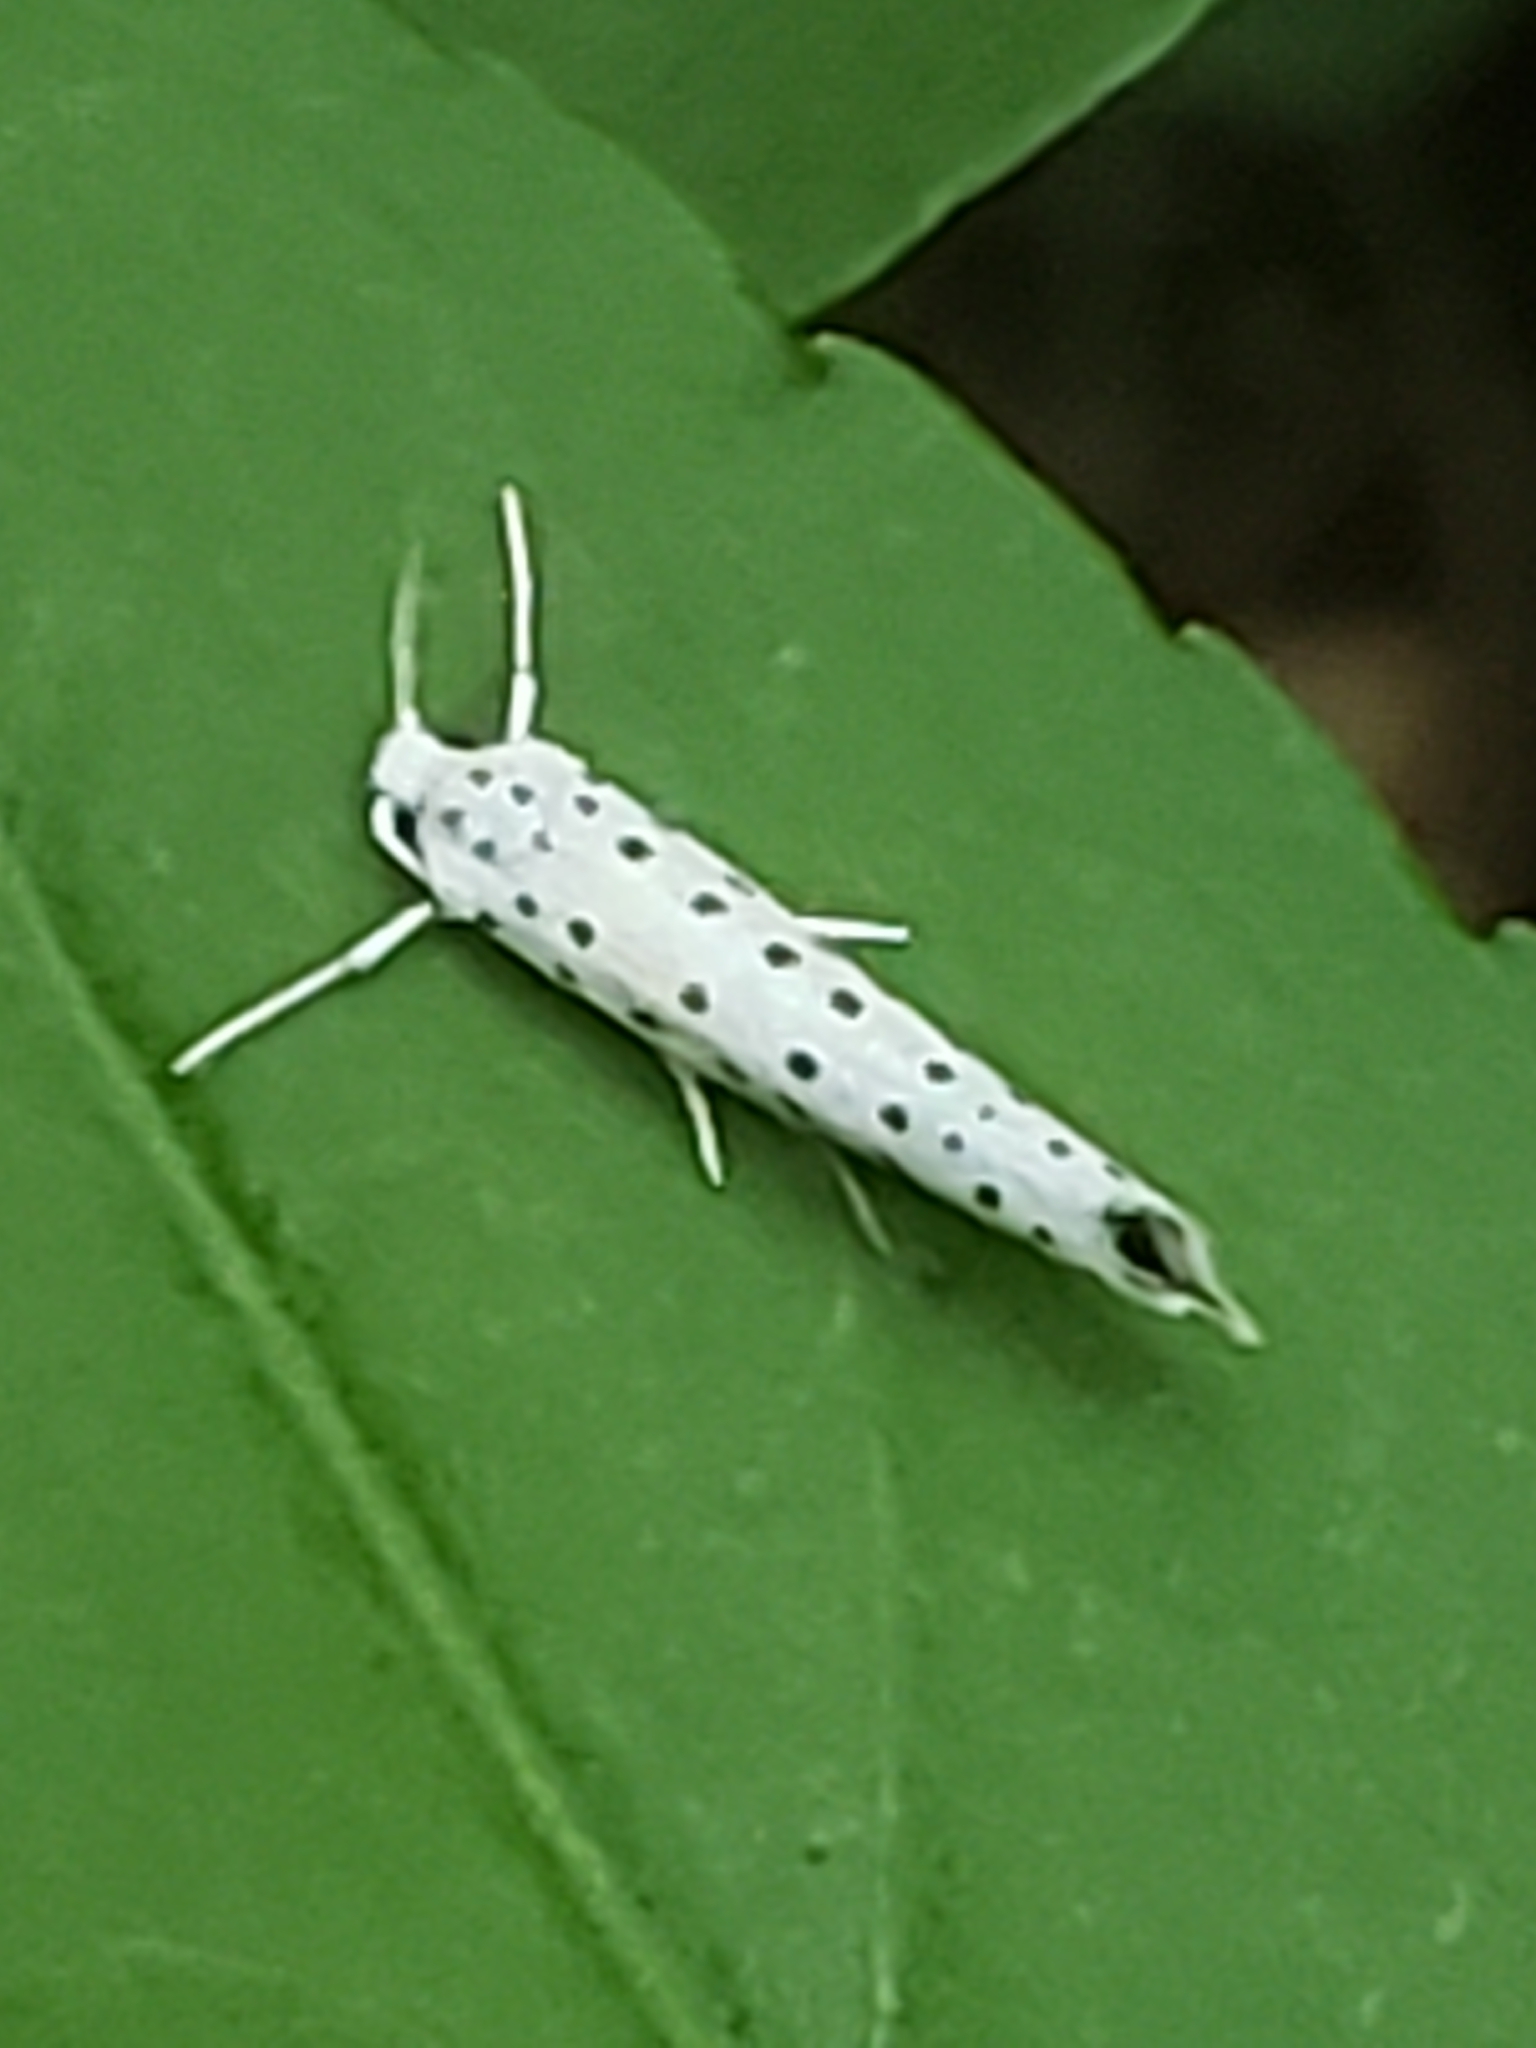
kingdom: Animalia
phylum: Arthropoda
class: Insecta
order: Lepidoptera
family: Yponomeutidae
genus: Yponomeuta
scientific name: Yponomeuta multipunctella
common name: American ermine moth
